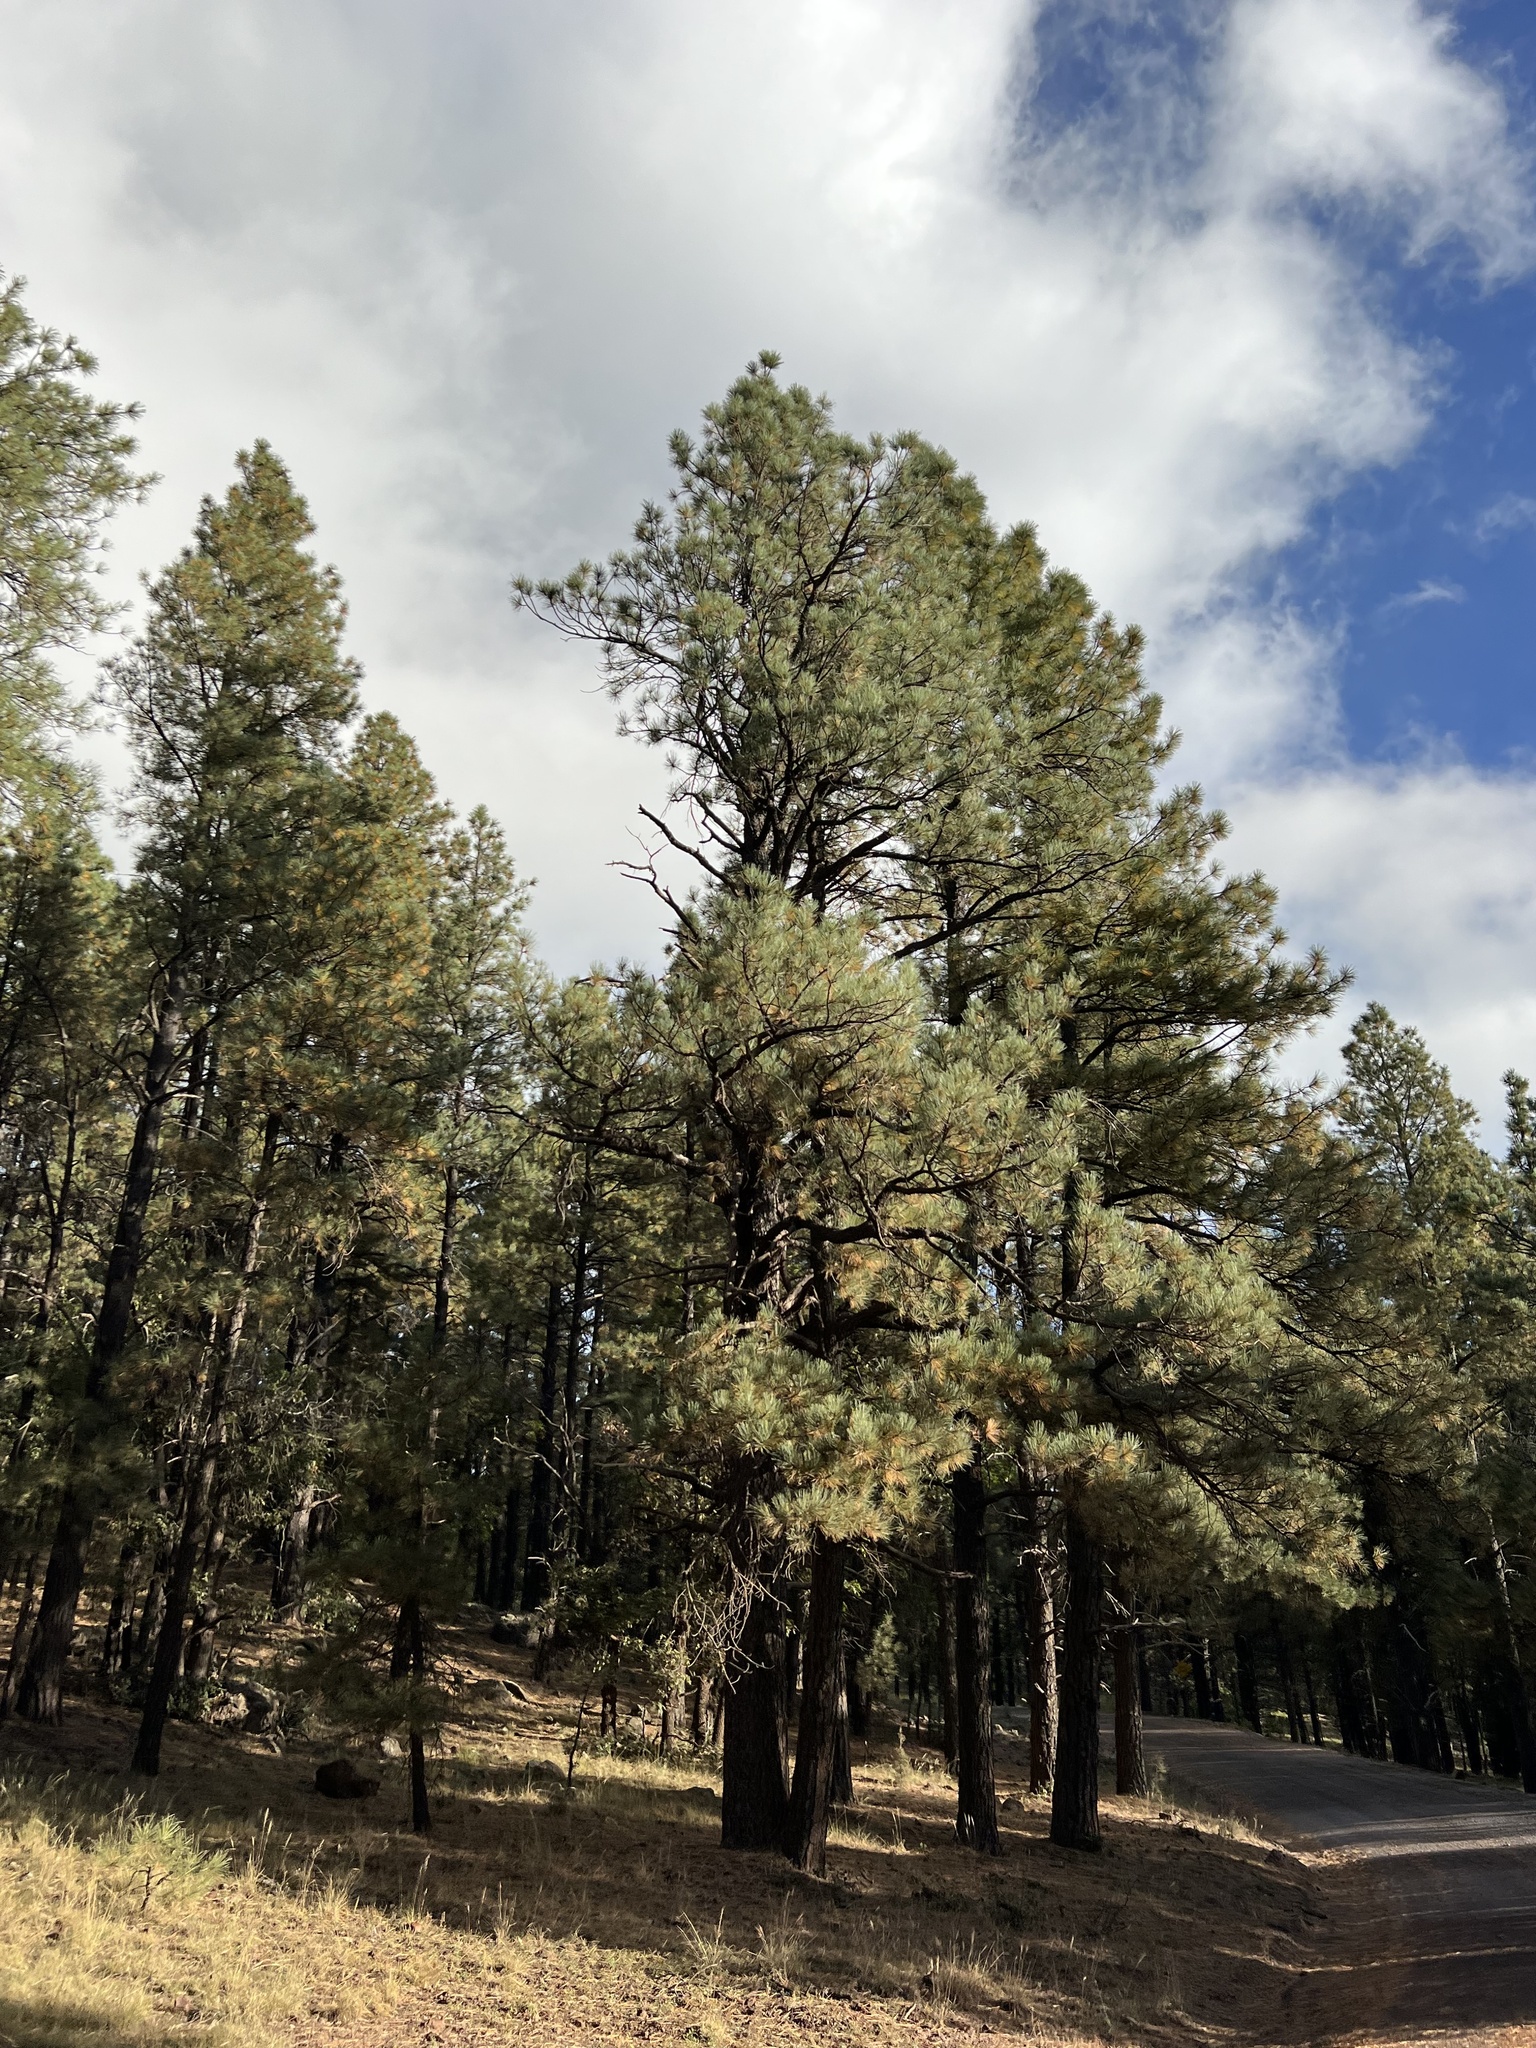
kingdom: Plantae
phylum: Tracheophyta
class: Pinopsida
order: Pinales
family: Pinaceae
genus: Pinus
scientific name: Pinus ponderosa
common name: Western yellow-pine
